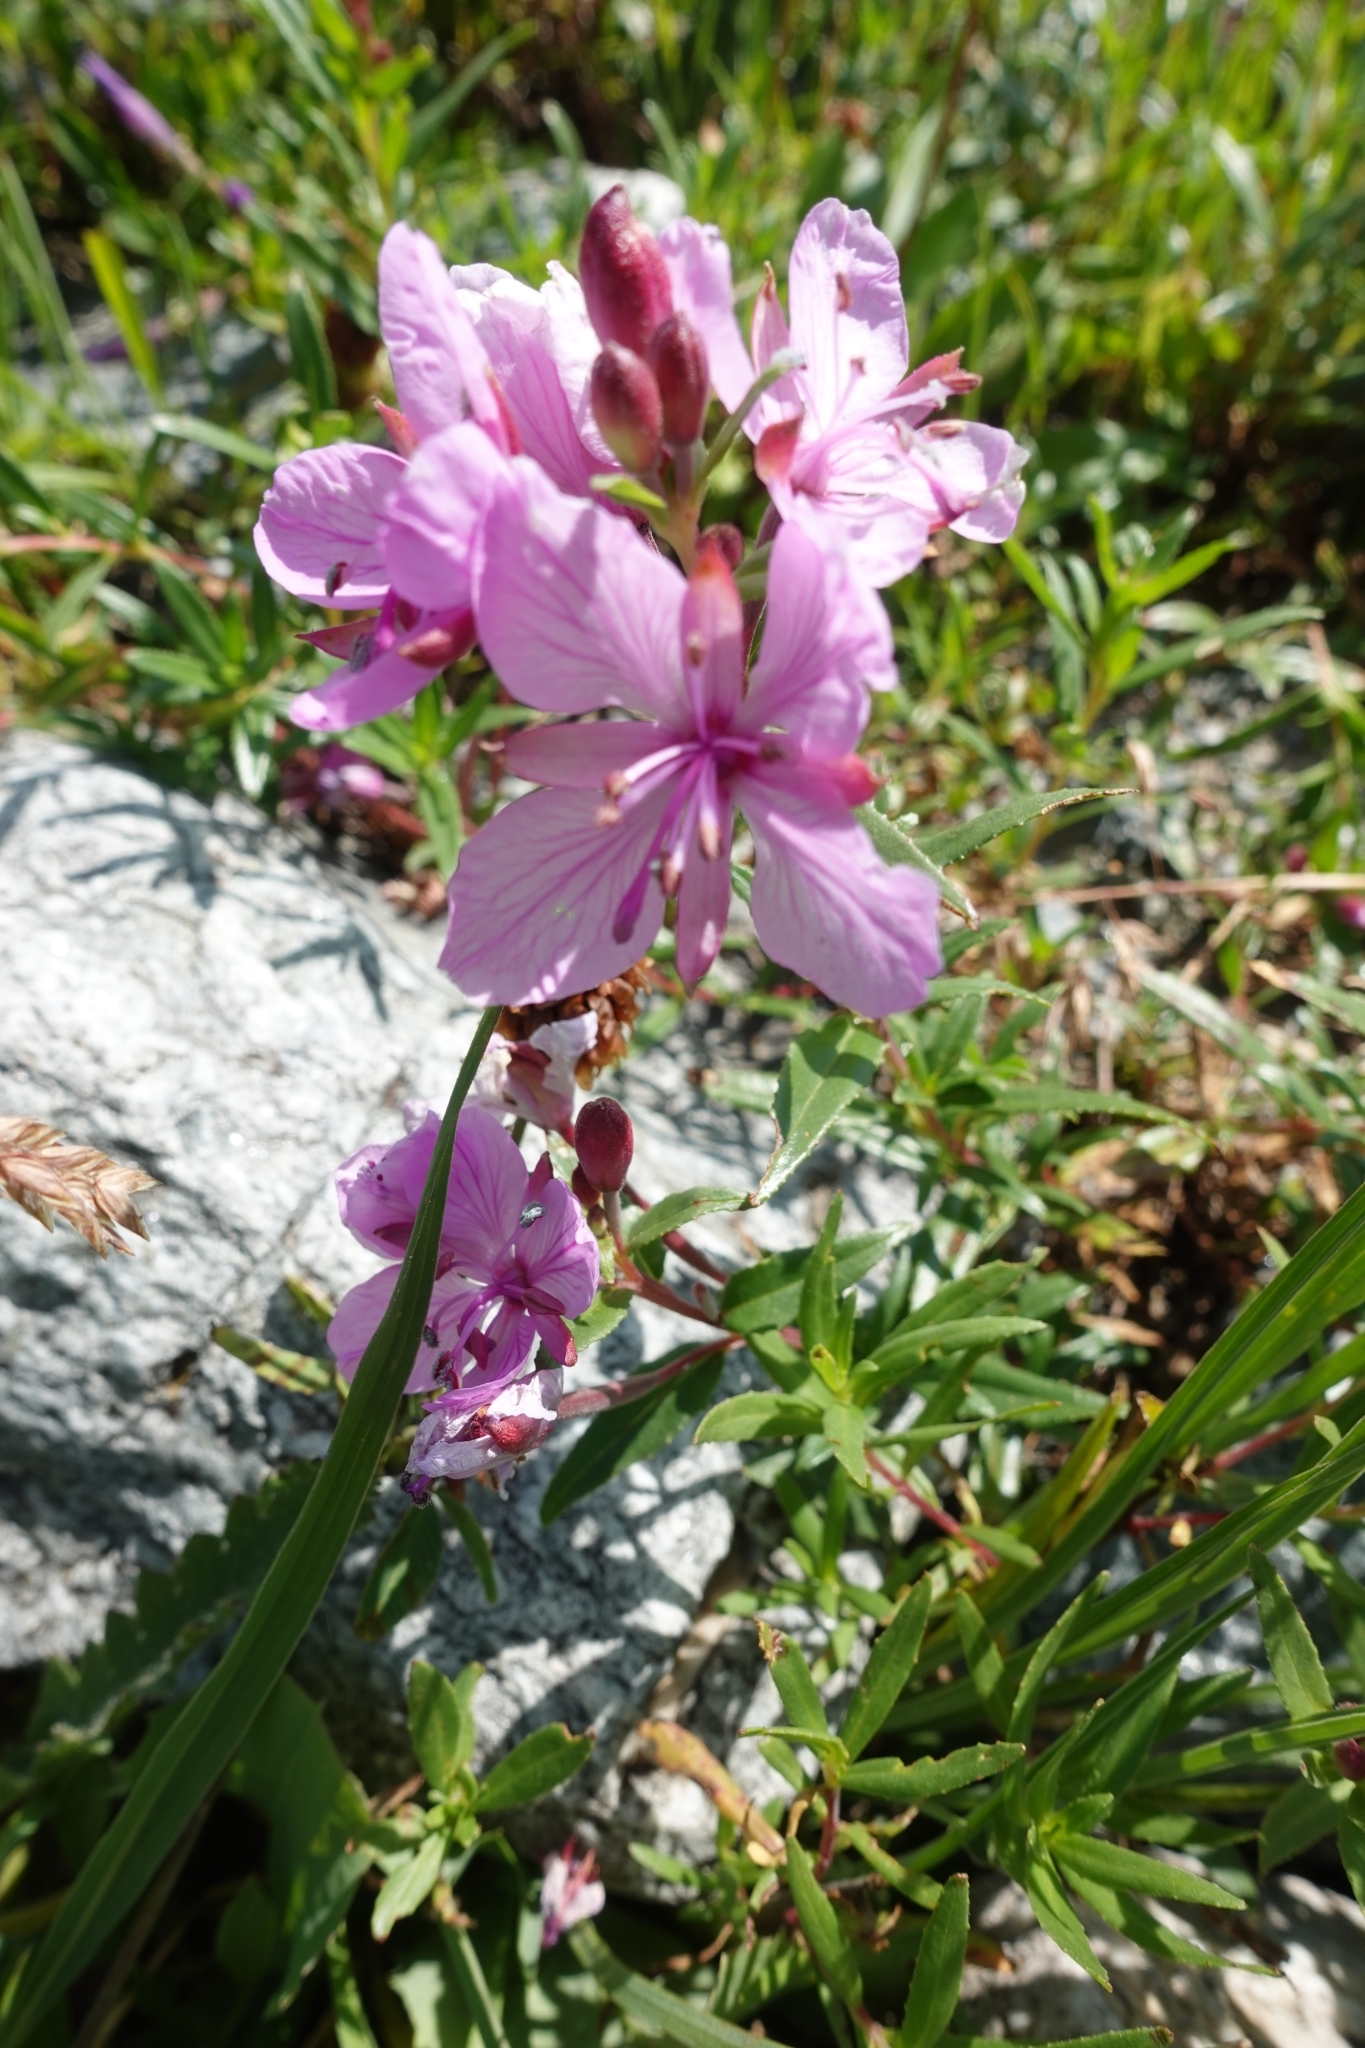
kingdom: Plantae
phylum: Tracheophyta
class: Magnoliopsida
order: Myrtales
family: Onagraceae
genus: Chamaenerion
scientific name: Chamaenerion colchicum
